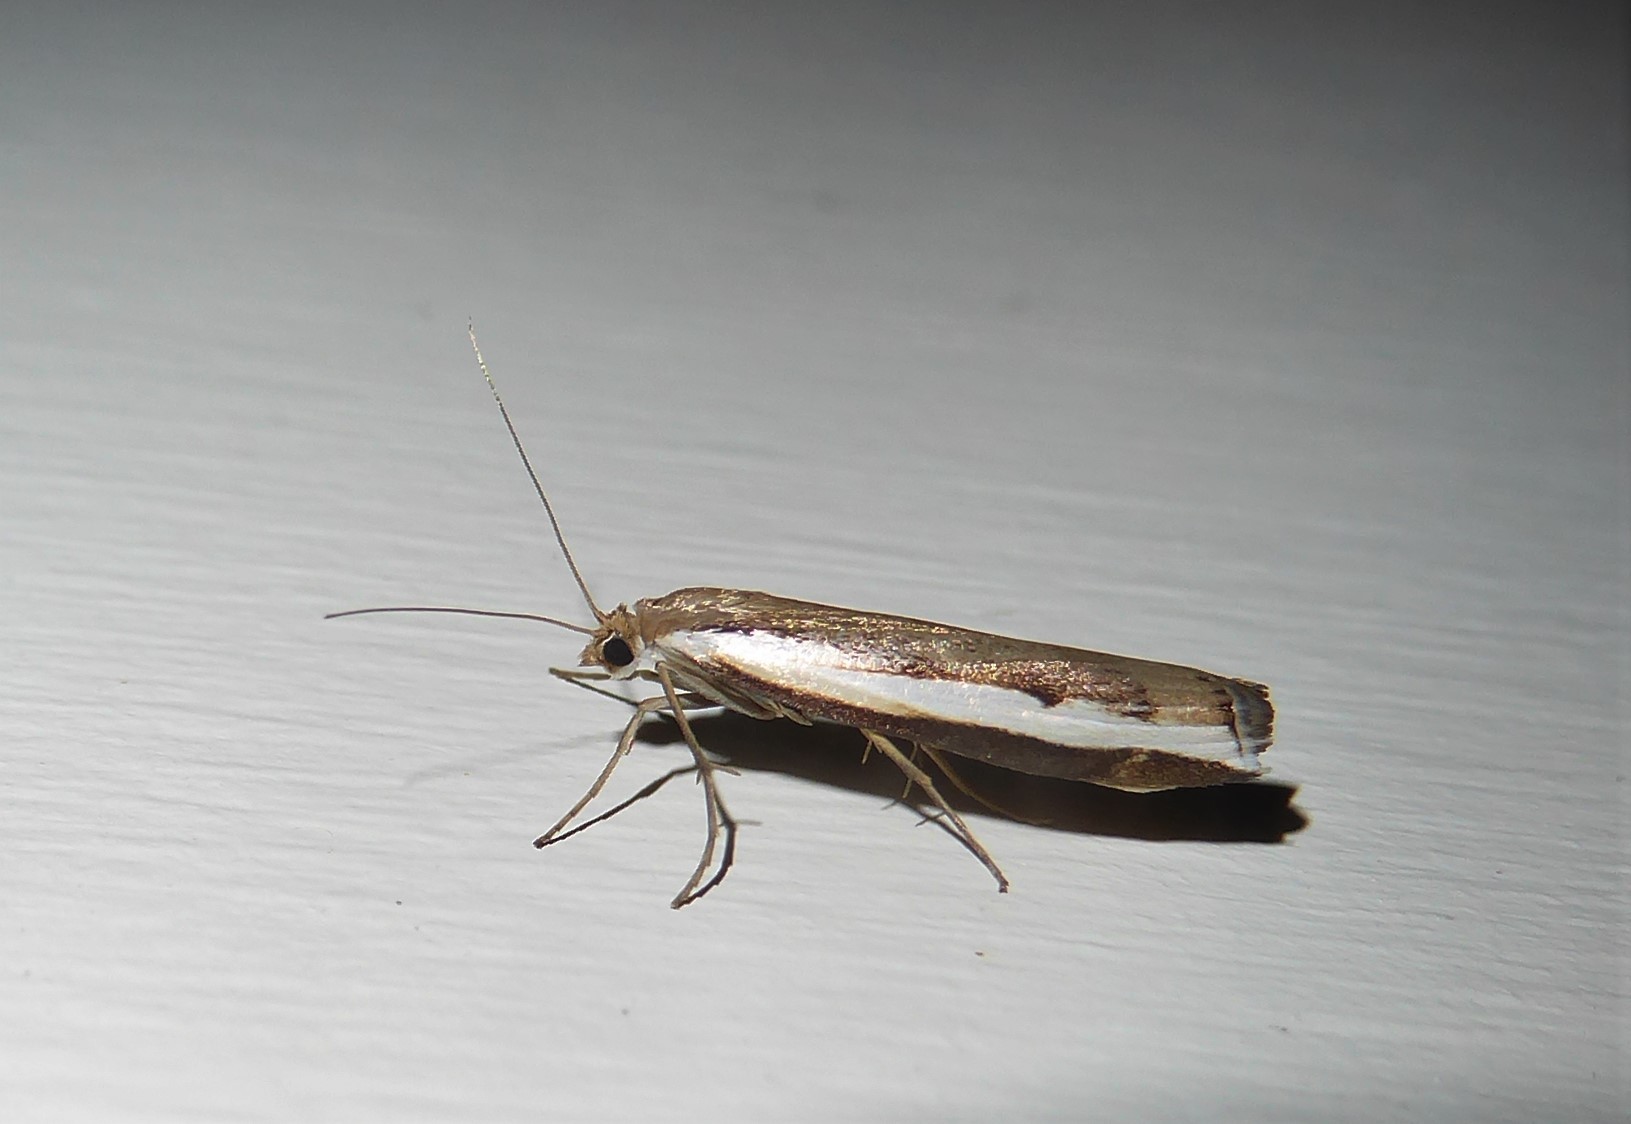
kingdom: Animalia
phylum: Arthropoda
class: Insecta
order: Lepidoptera
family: Crambidae
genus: Orocrambus
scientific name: Orocrambus flexuosellus
